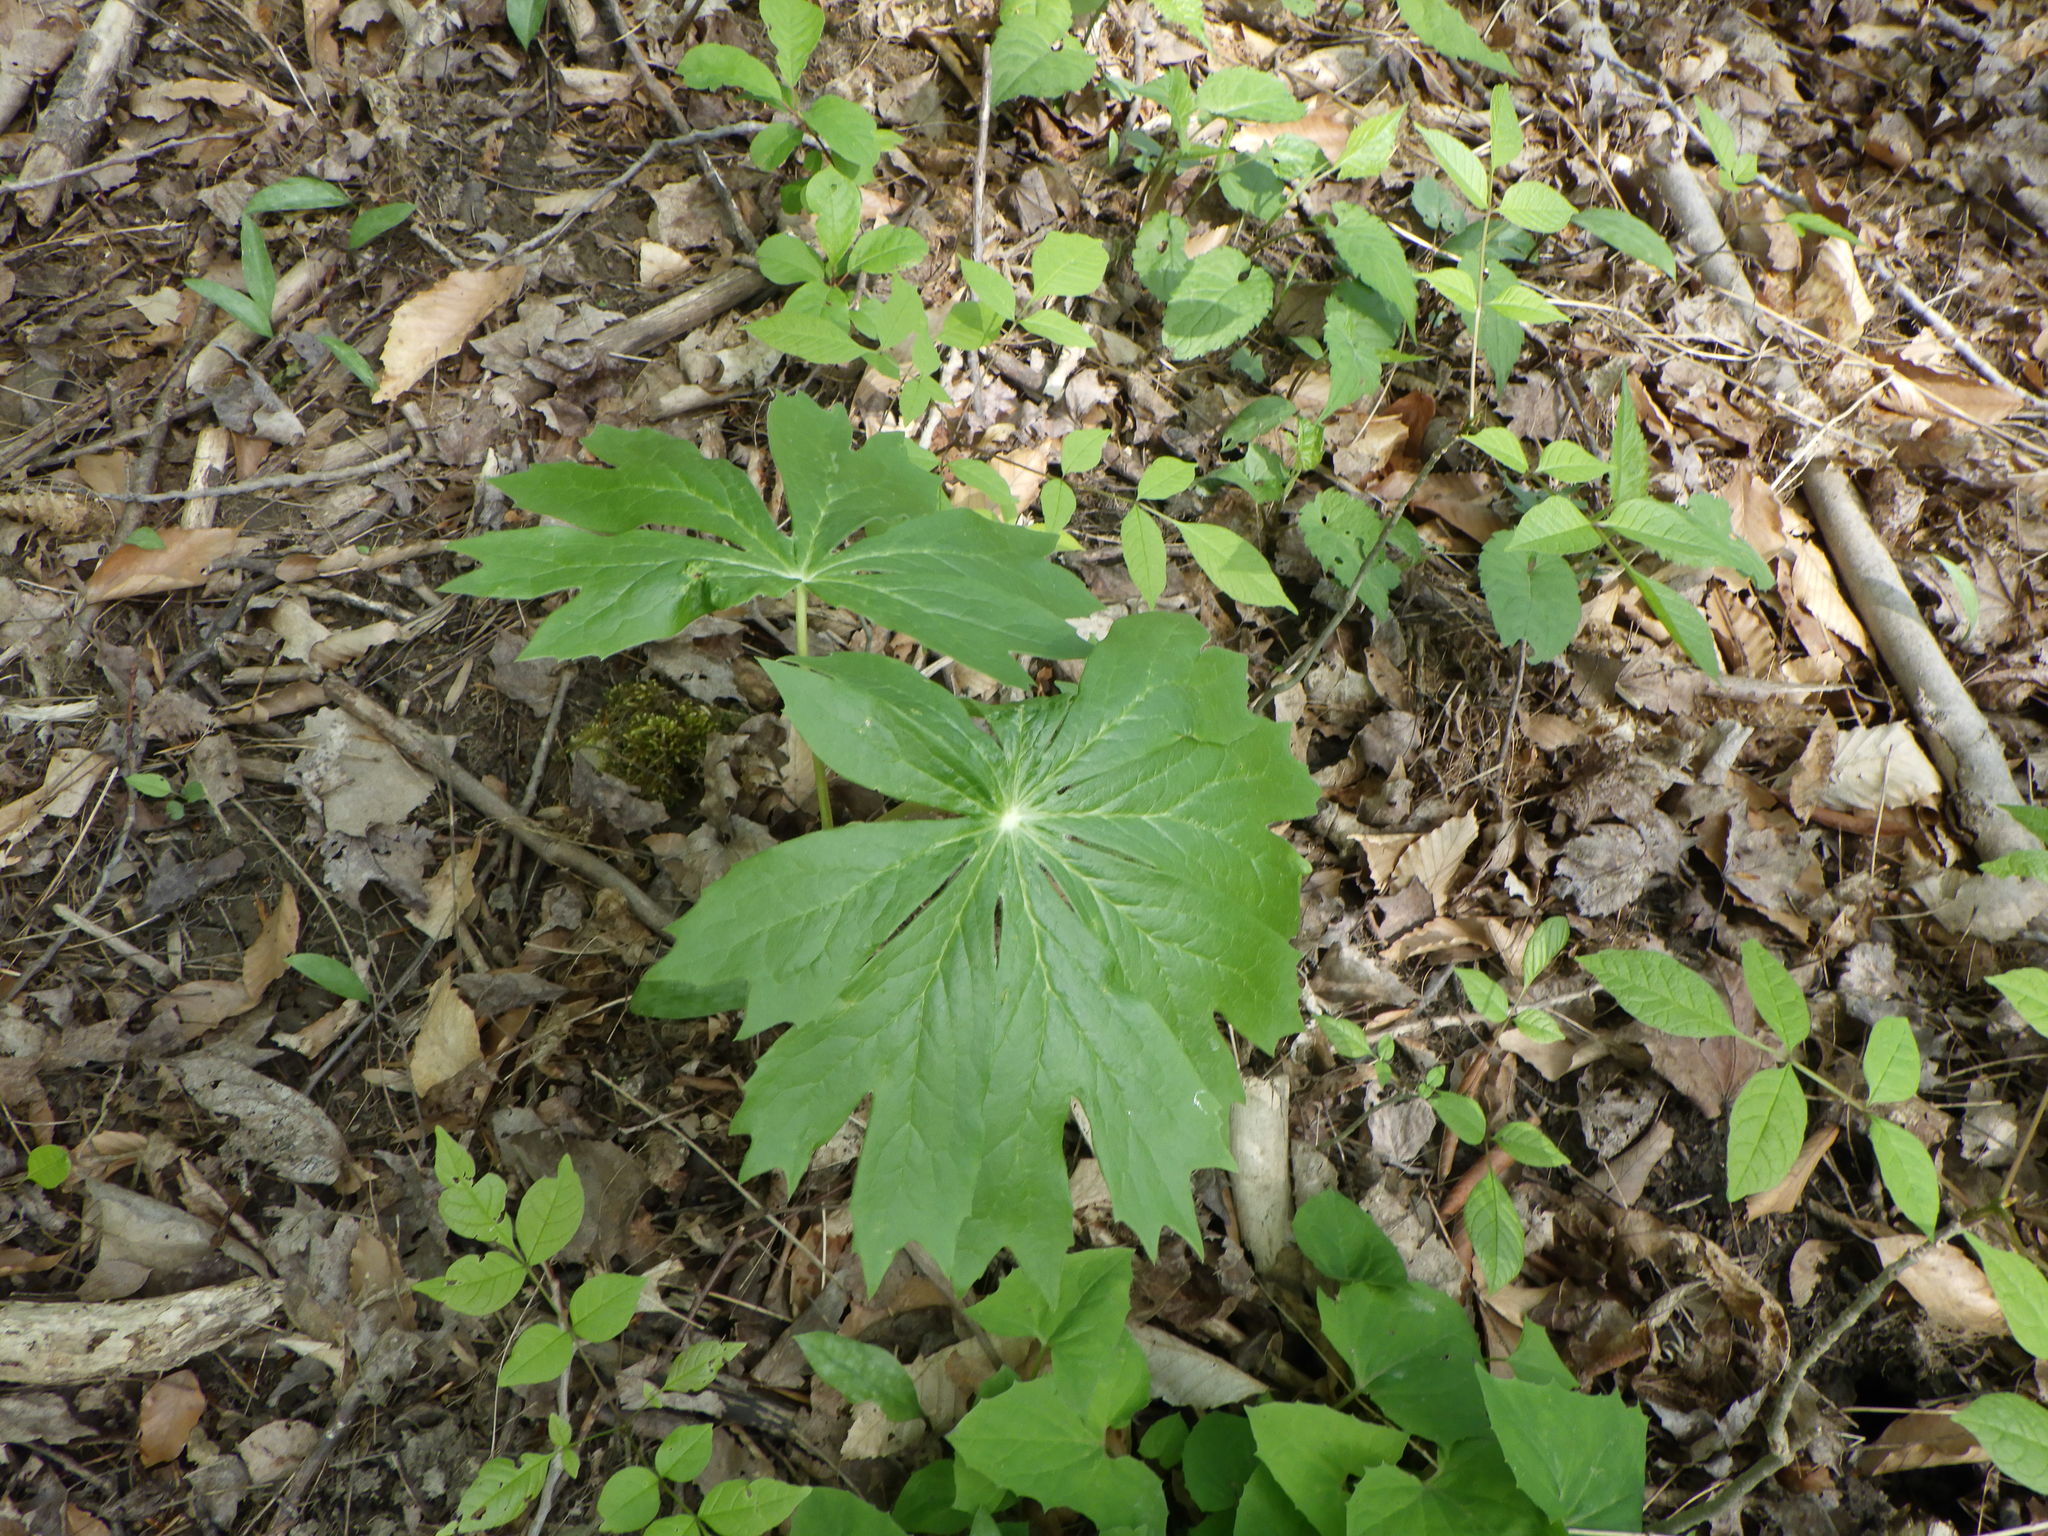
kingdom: Plantae
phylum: Tracheophyta
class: Magnoliopsida
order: Ranunculales
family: Berberidaceae
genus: Podophyllum
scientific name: Podophyllum peltatum
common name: Wild mandrake
